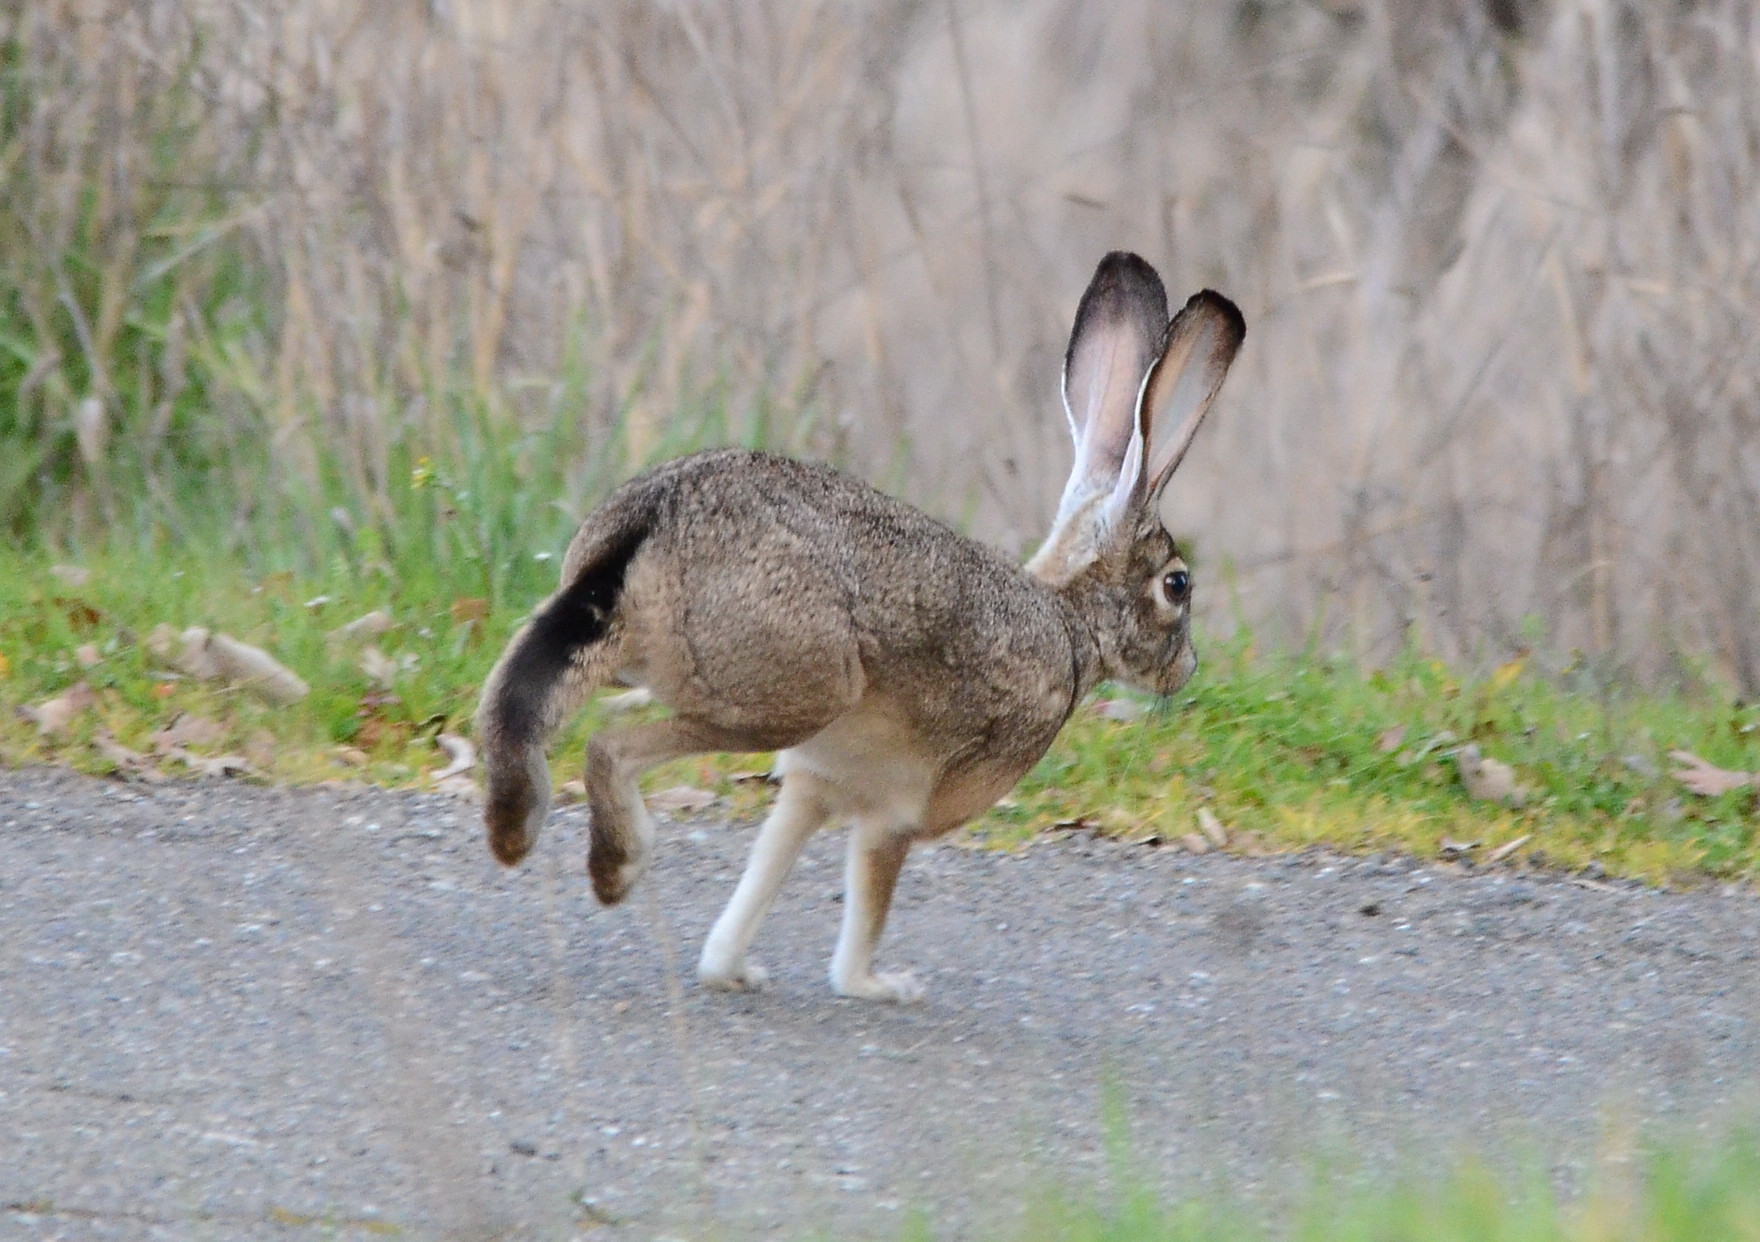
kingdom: Animalia
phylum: Chordata
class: Mammalia
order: Lagomorpha
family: Leporidae
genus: Lepus
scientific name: Lepus californicus
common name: Black-tailed jackrabbit
